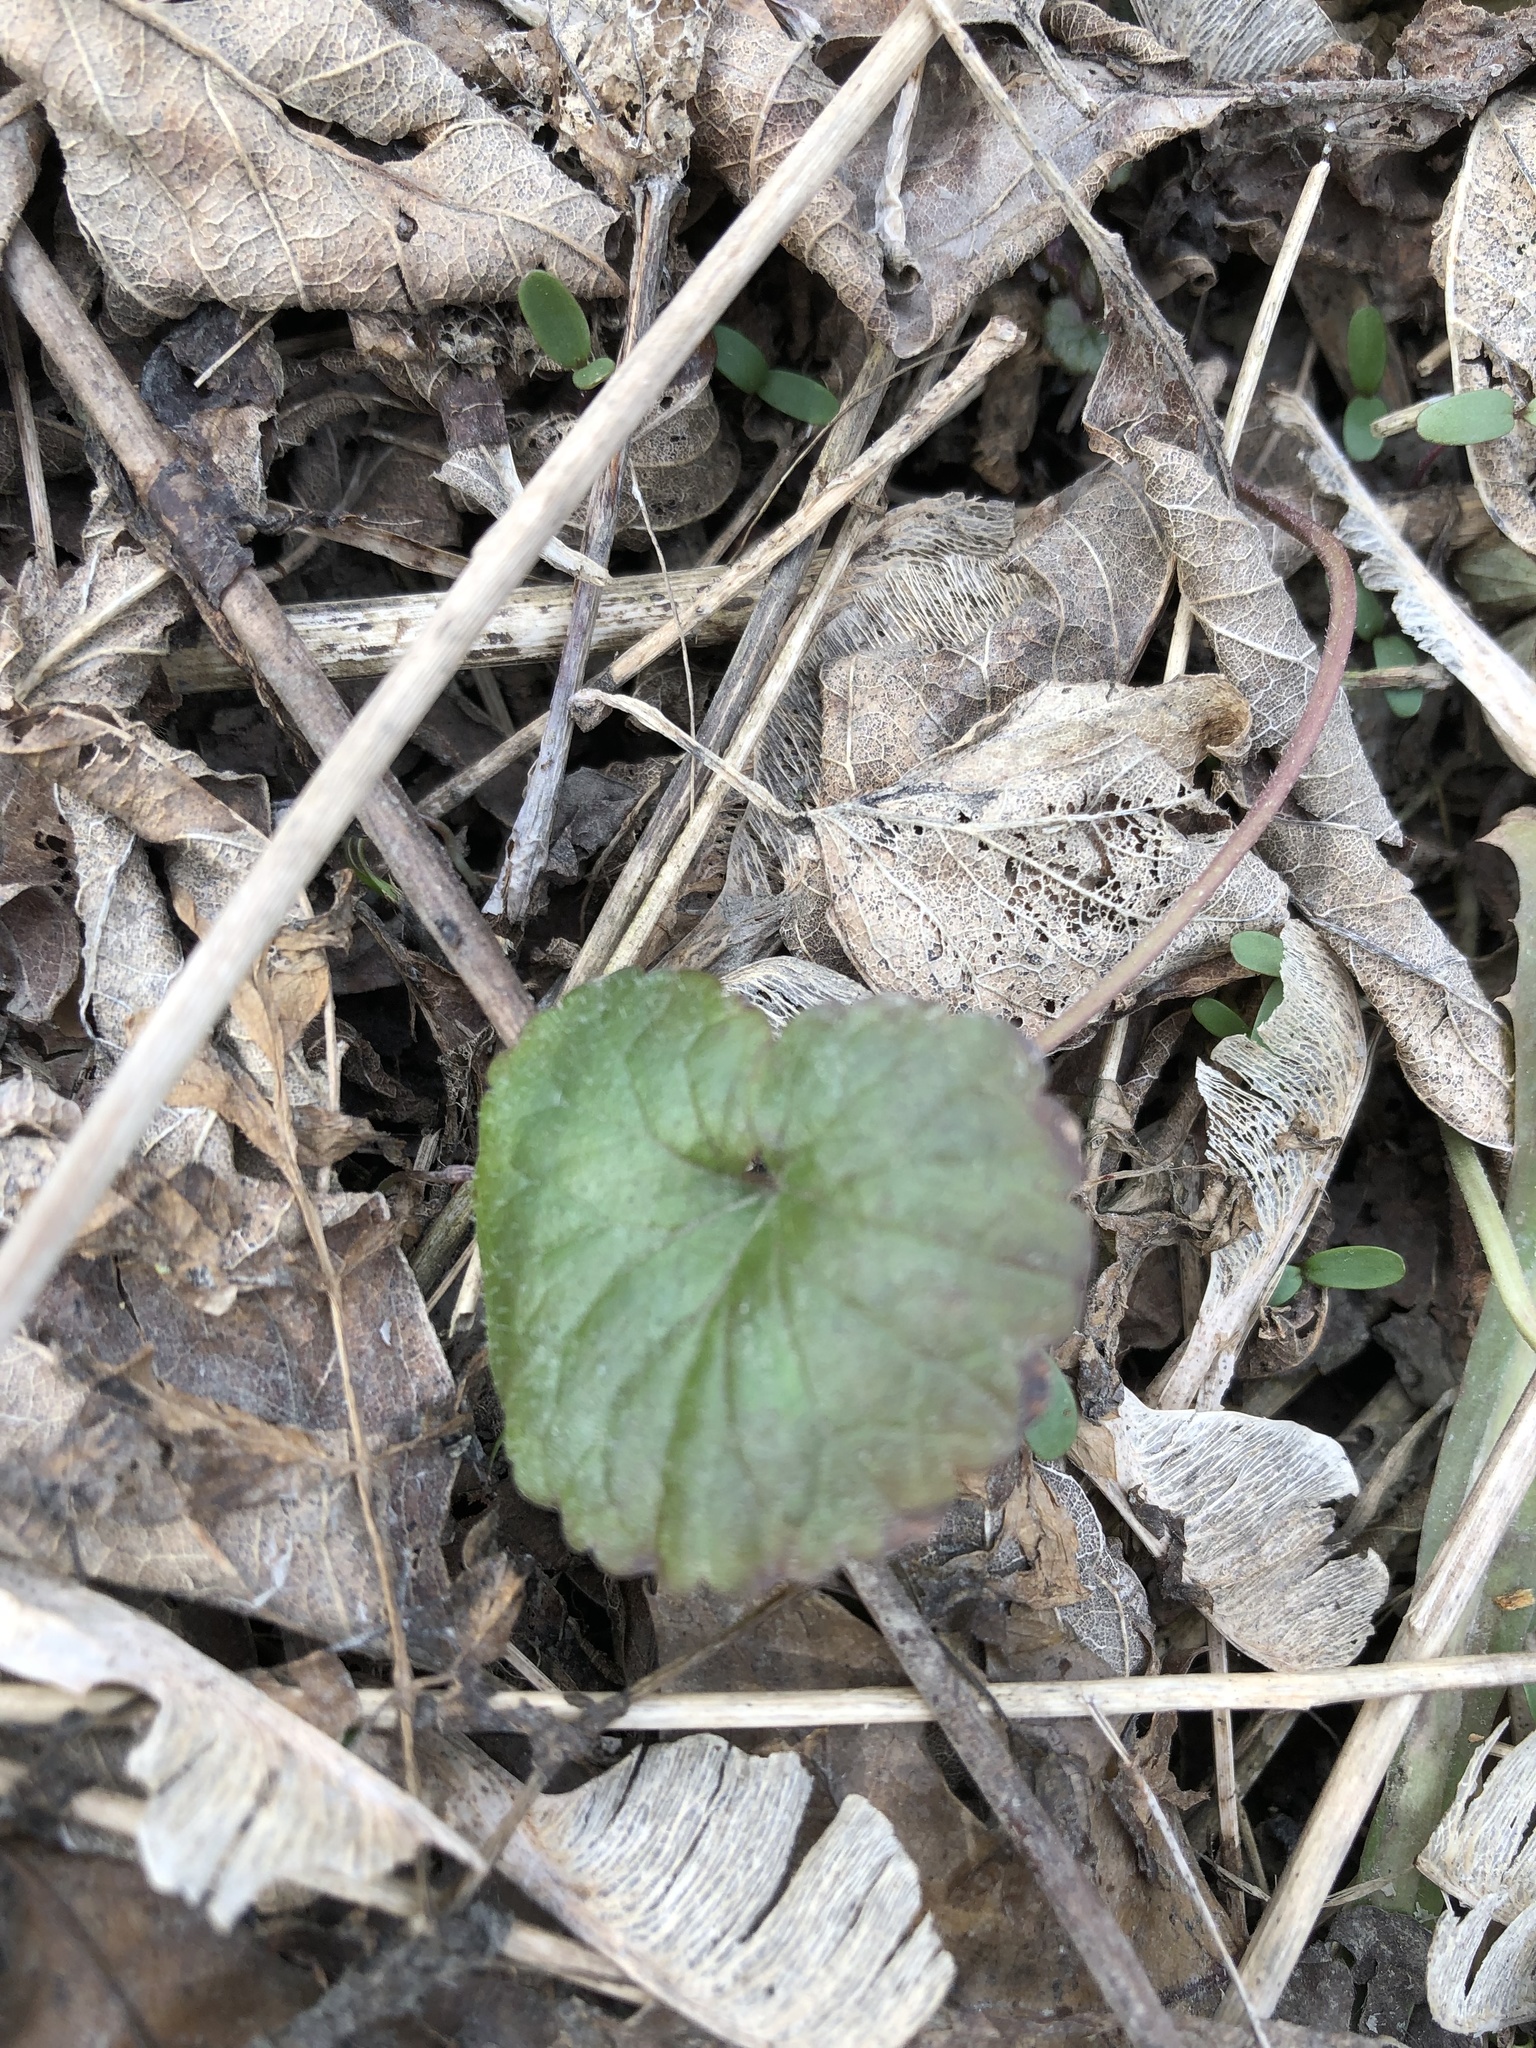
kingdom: Plantae
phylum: Tracheophyta
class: Magnoliopsida
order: Lamiales
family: Lamiaceae
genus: Glechoma
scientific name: Glechoma hederacea
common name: Ground ivy
